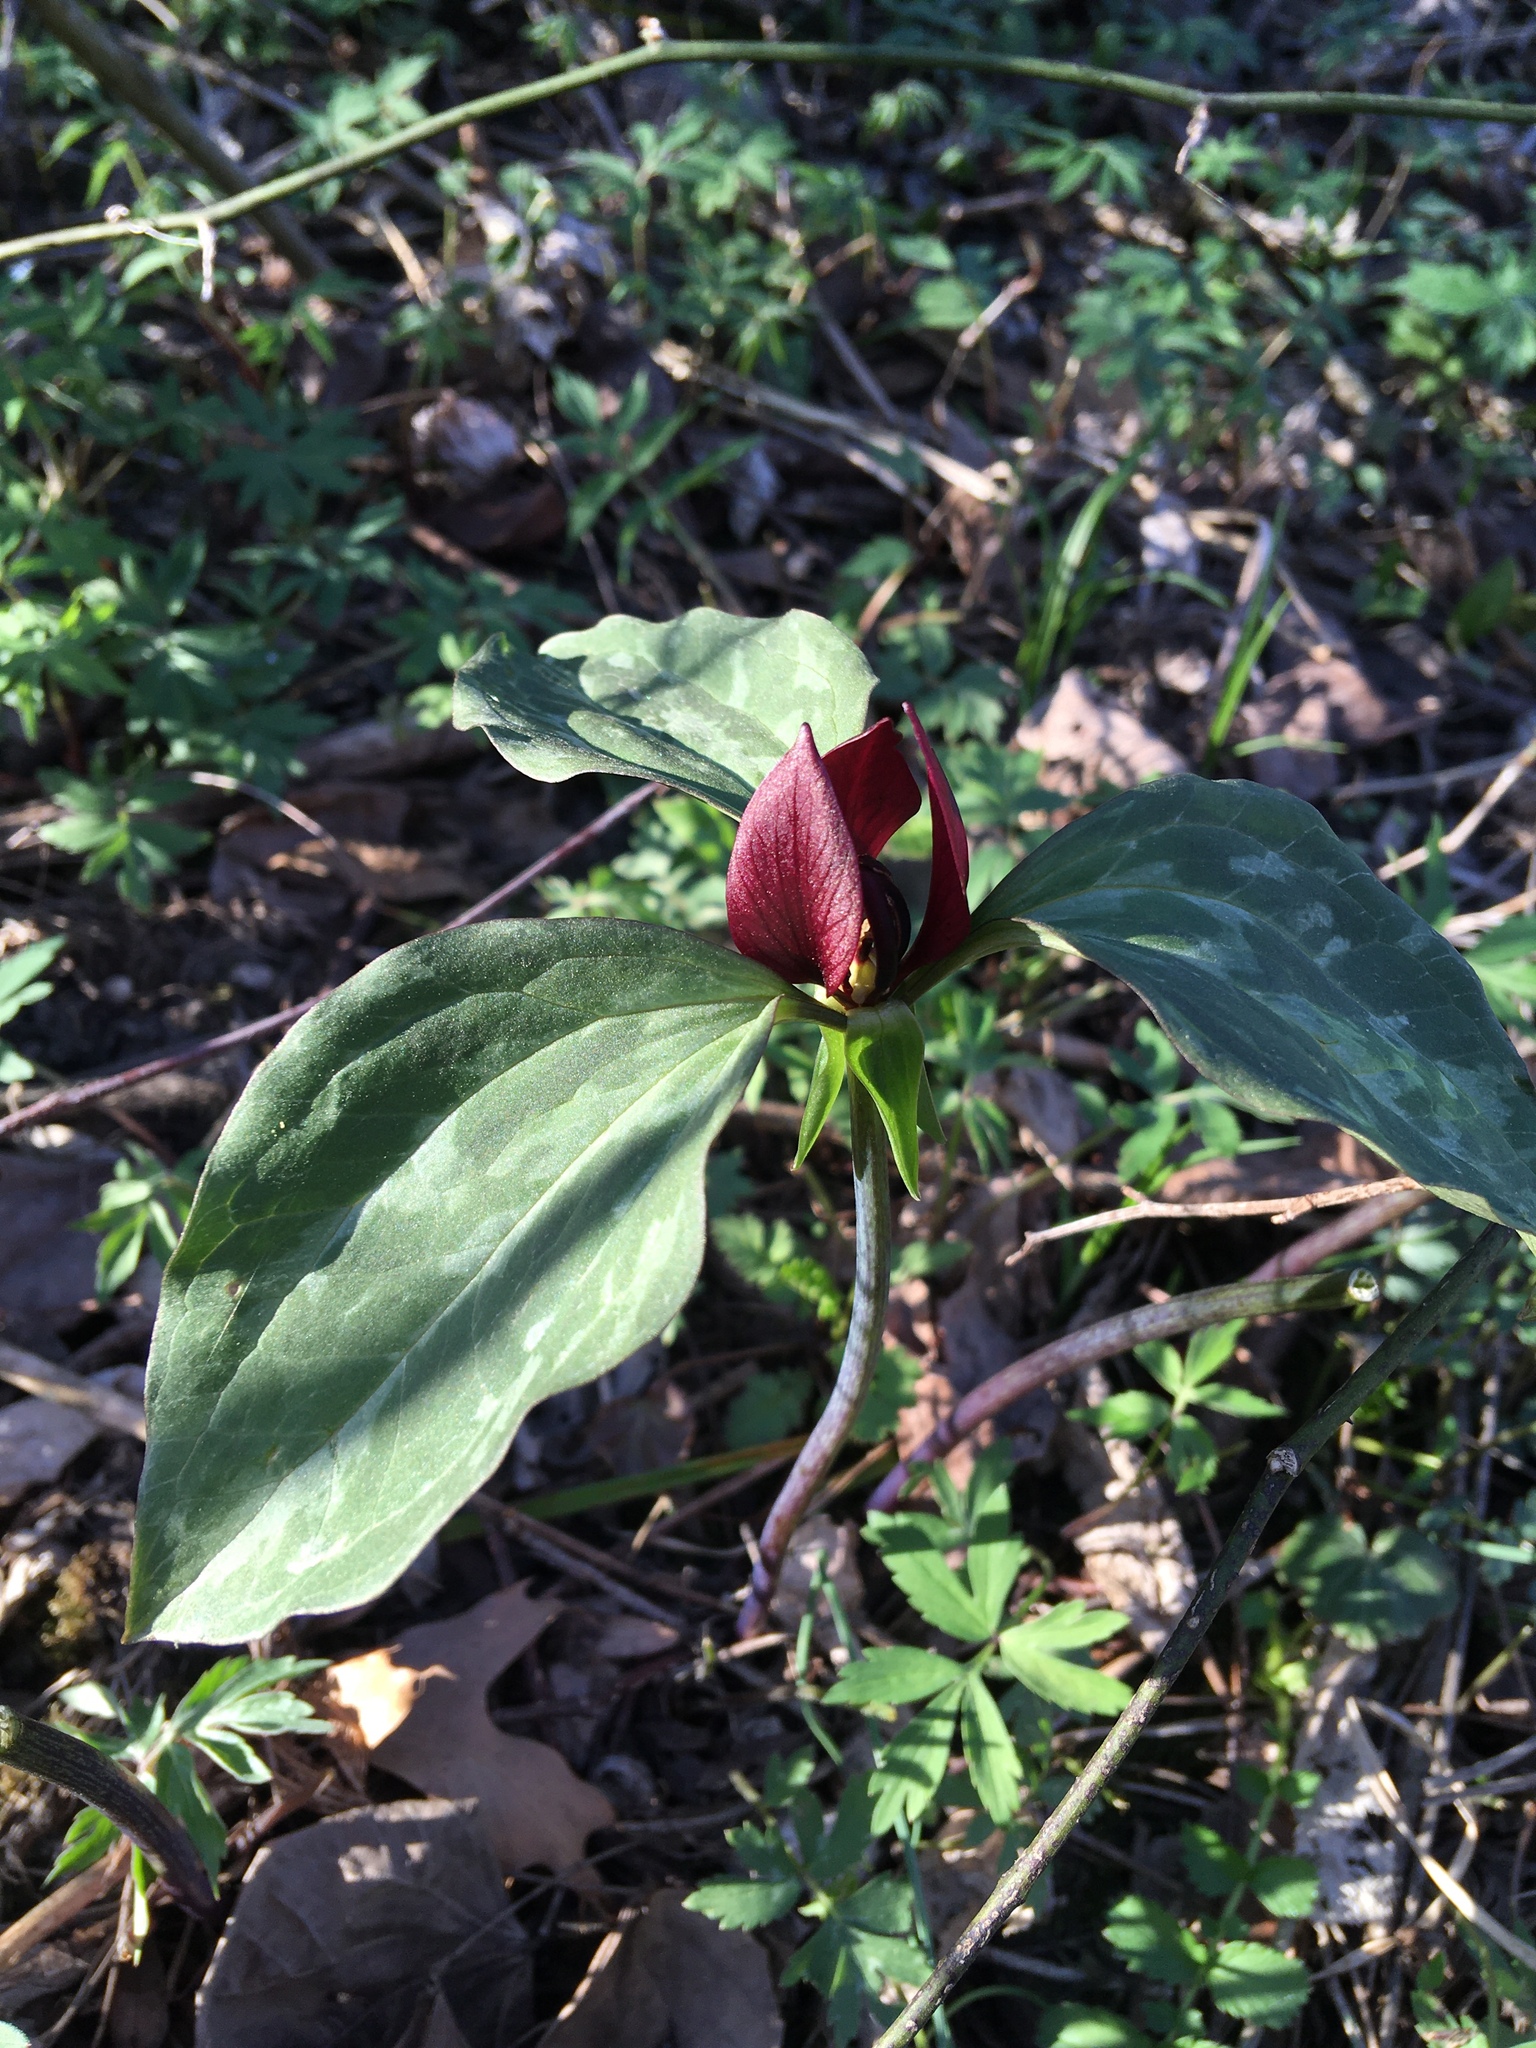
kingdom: Plantae
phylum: Tracheophyta
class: Liliopsida
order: Liliales
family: Melanthiaceae
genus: Trillium
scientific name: Trillium recurvatum
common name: Bloody butcher
